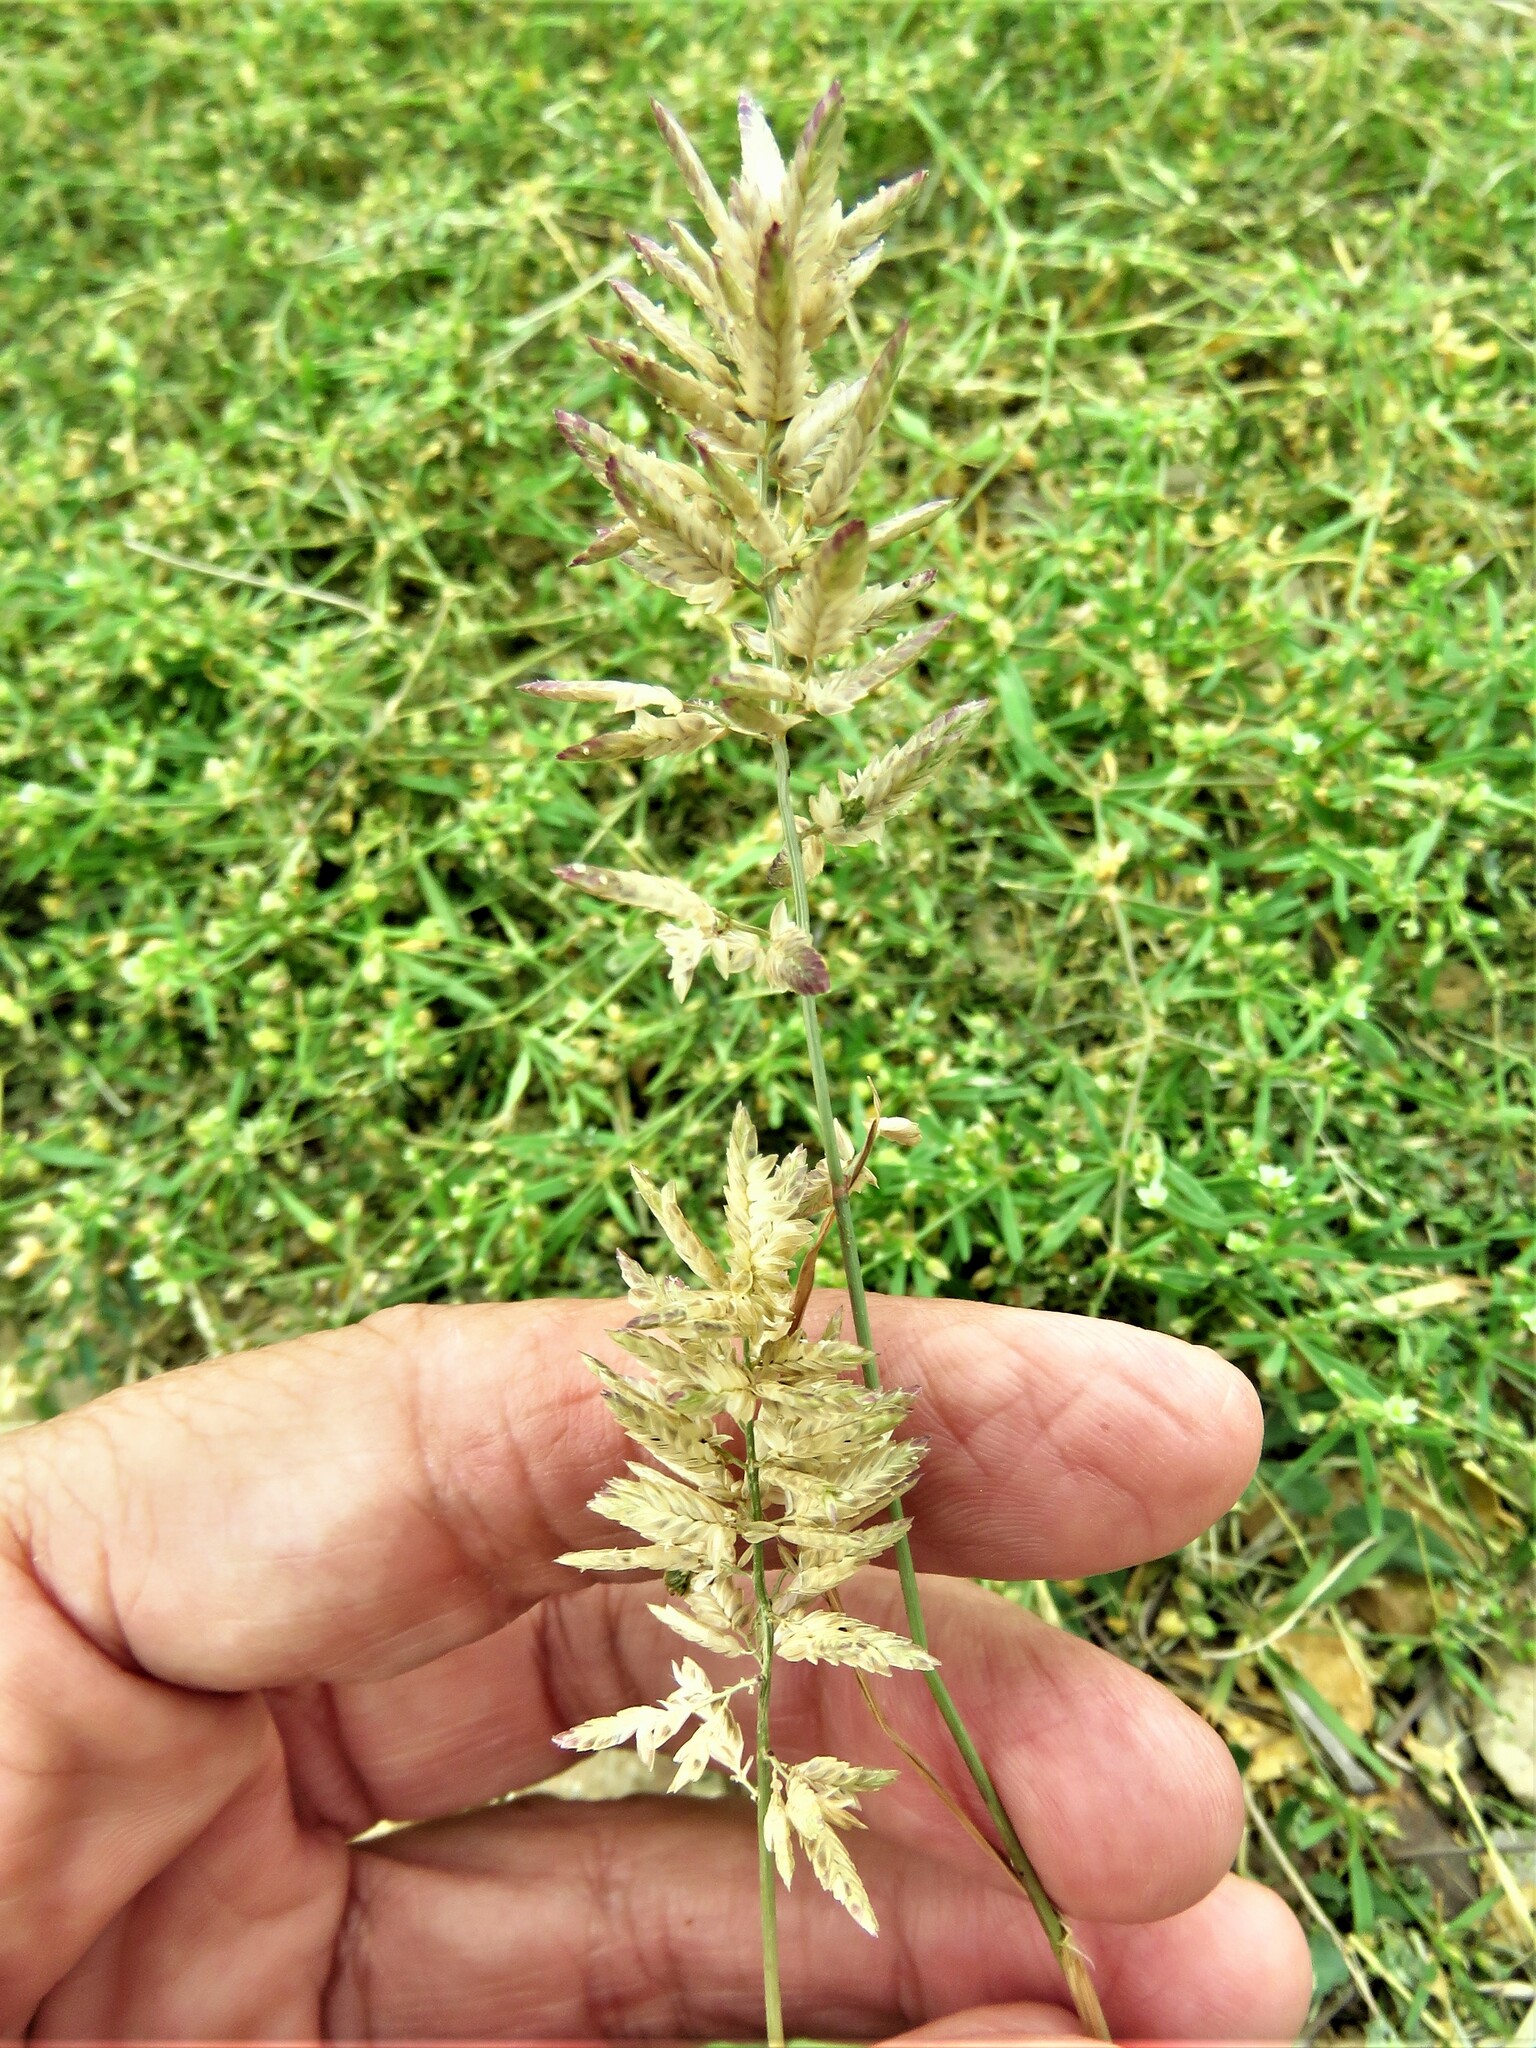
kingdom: Plantae
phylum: Tracheophyta
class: Liliopsida
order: Poales
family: Poaceae
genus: Eragrostis
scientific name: Eragrostis cilianensis
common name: Stinkgrass
